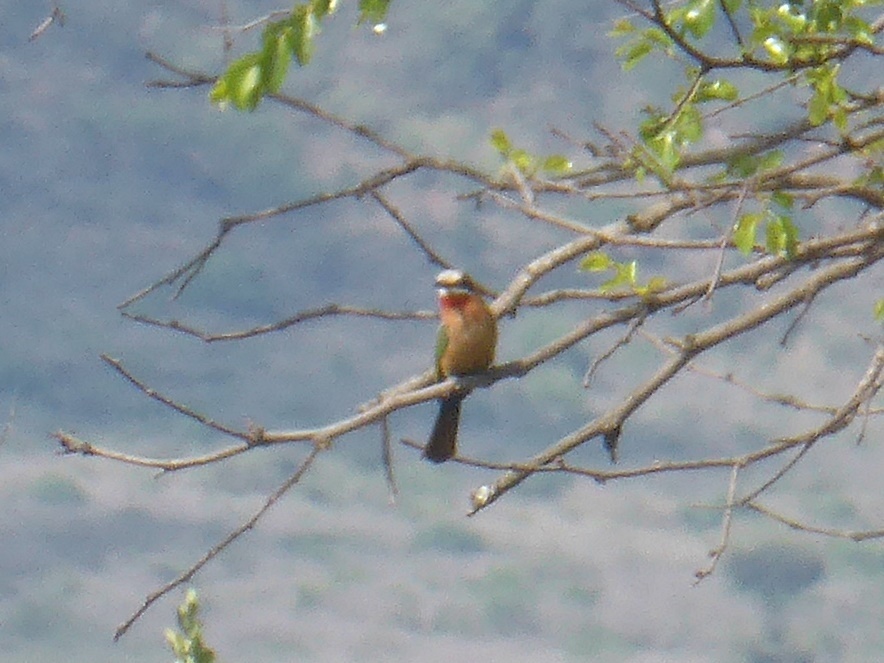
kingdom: Animalia
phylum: Chordata
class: Aves
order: Coraciiformes
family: Meropidae
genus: Merops
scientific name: Merops bullockoides
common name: White-fronted bee-eater
